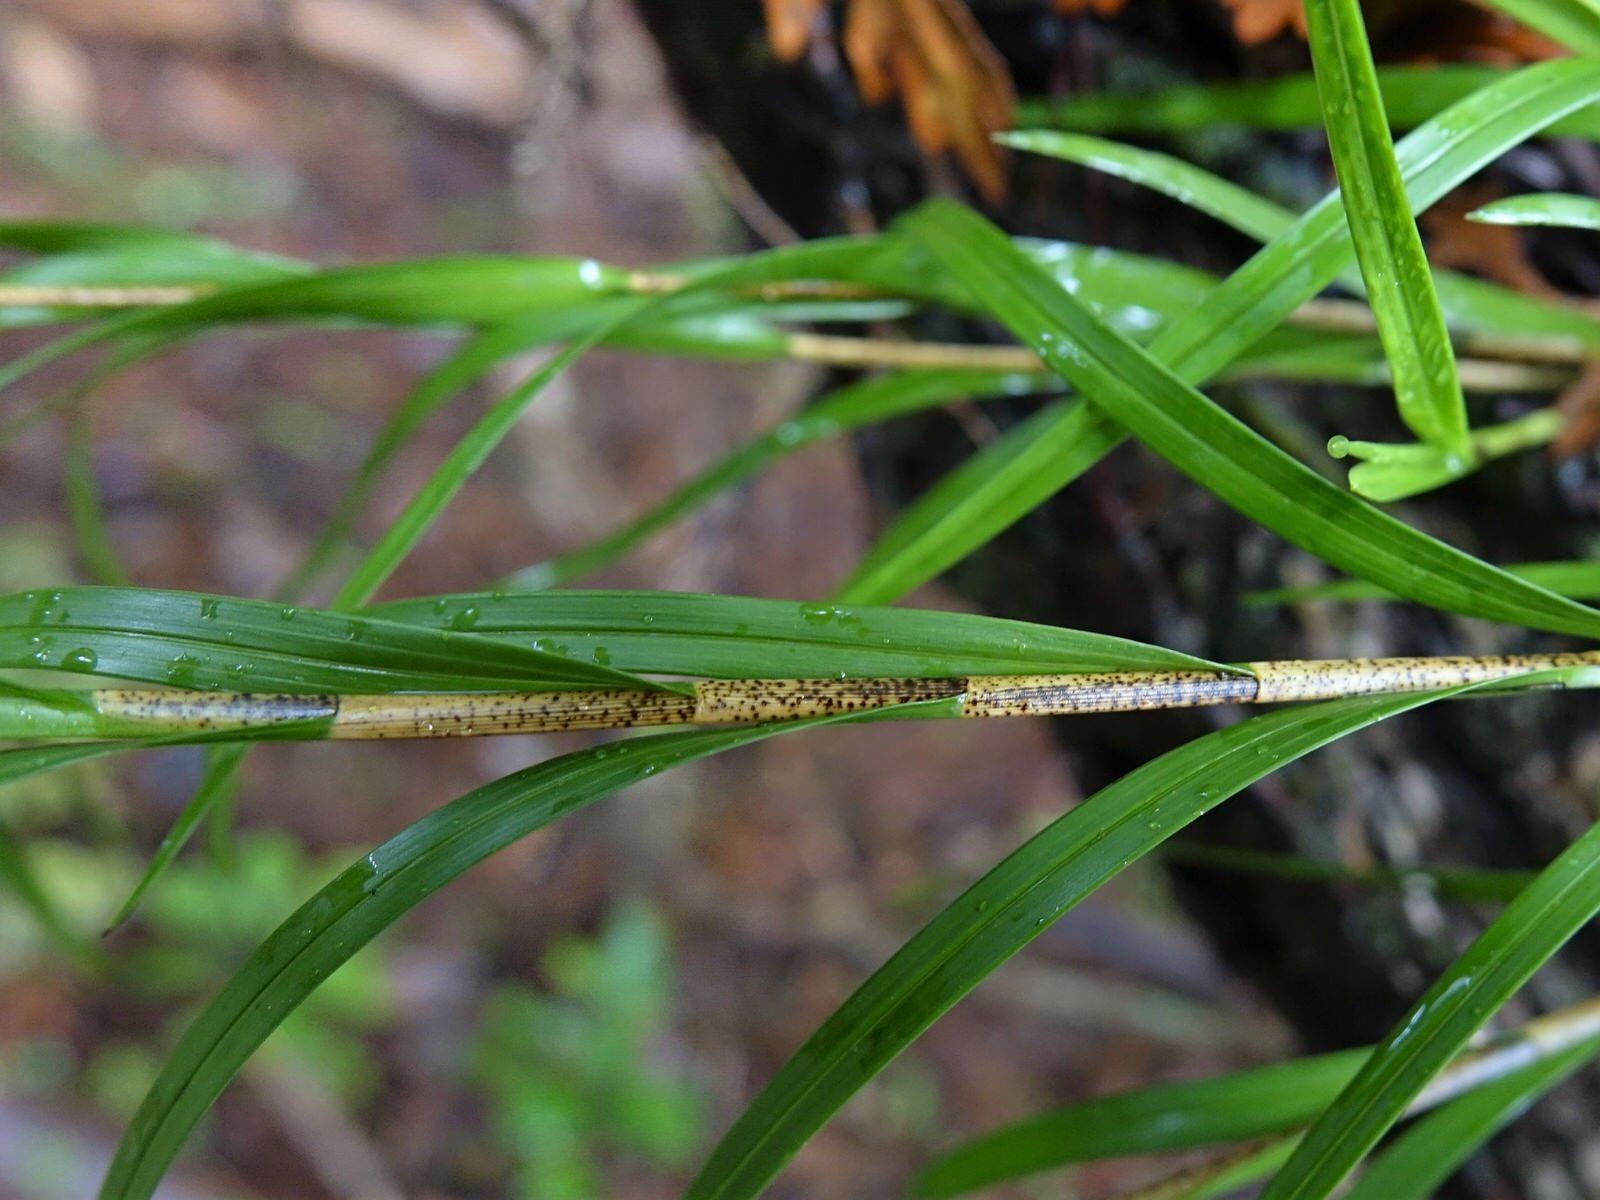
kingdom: Plantae
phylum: Tracheophyta
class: Liliopsida
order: Asparagales
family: Orchidaceae
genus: Earina
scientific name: Earina mucronata
